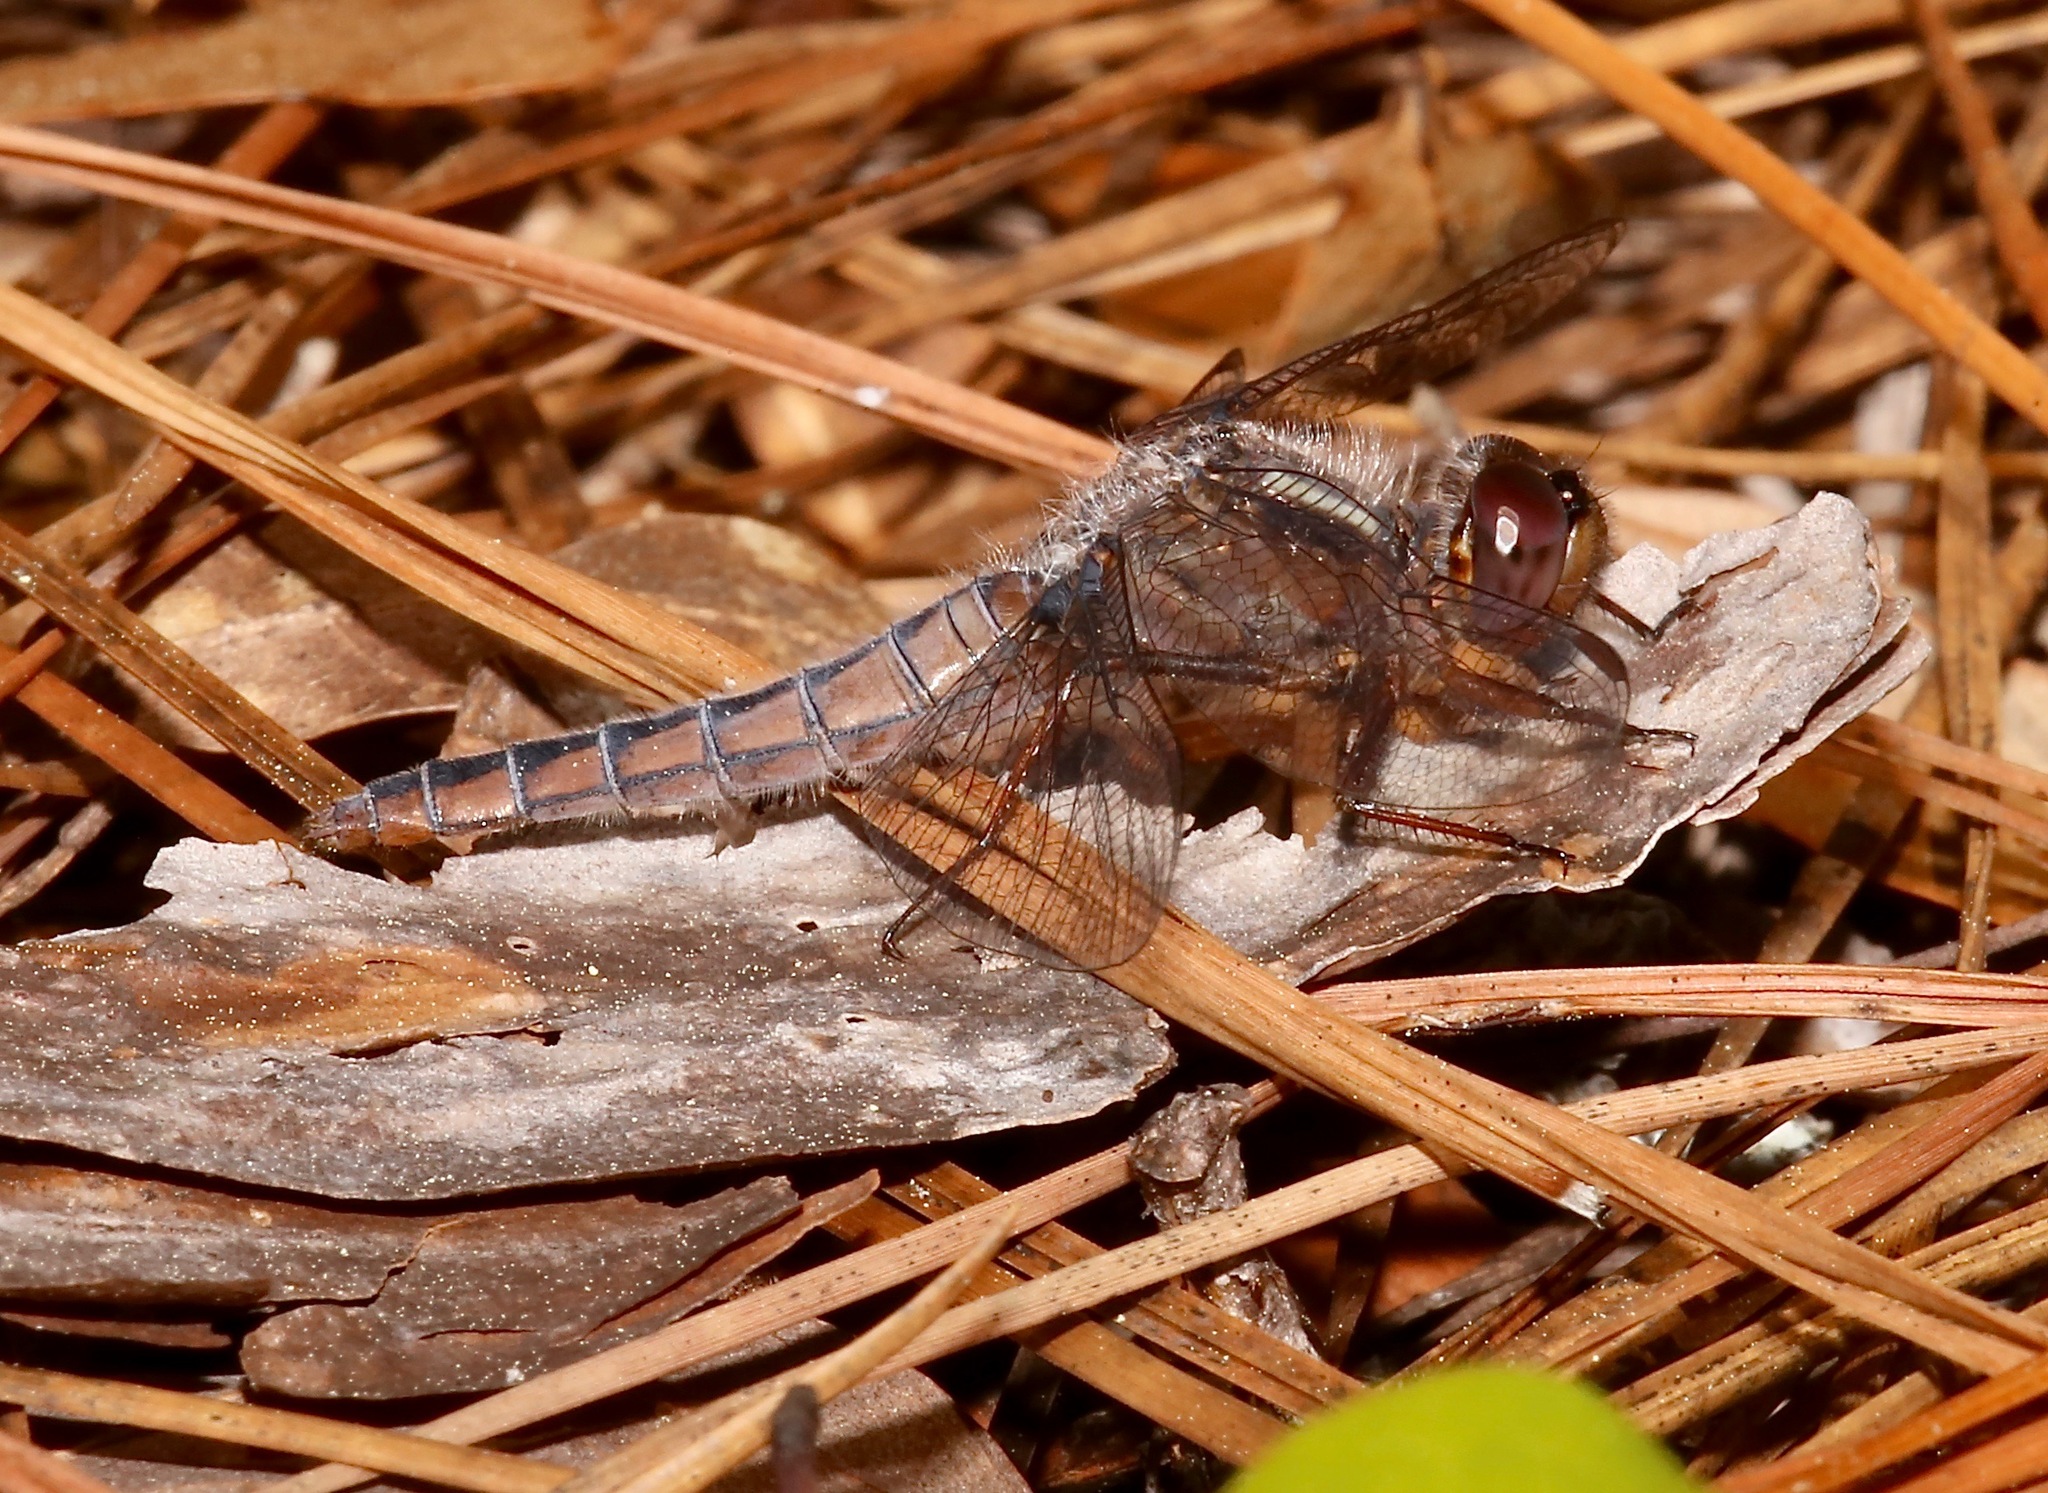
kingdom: Animalia
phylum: Arthropoda
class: Insecta
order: Odonata
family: Libellulidae
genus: Ladona
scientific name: Ladona deplanata
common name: Blue corporal
